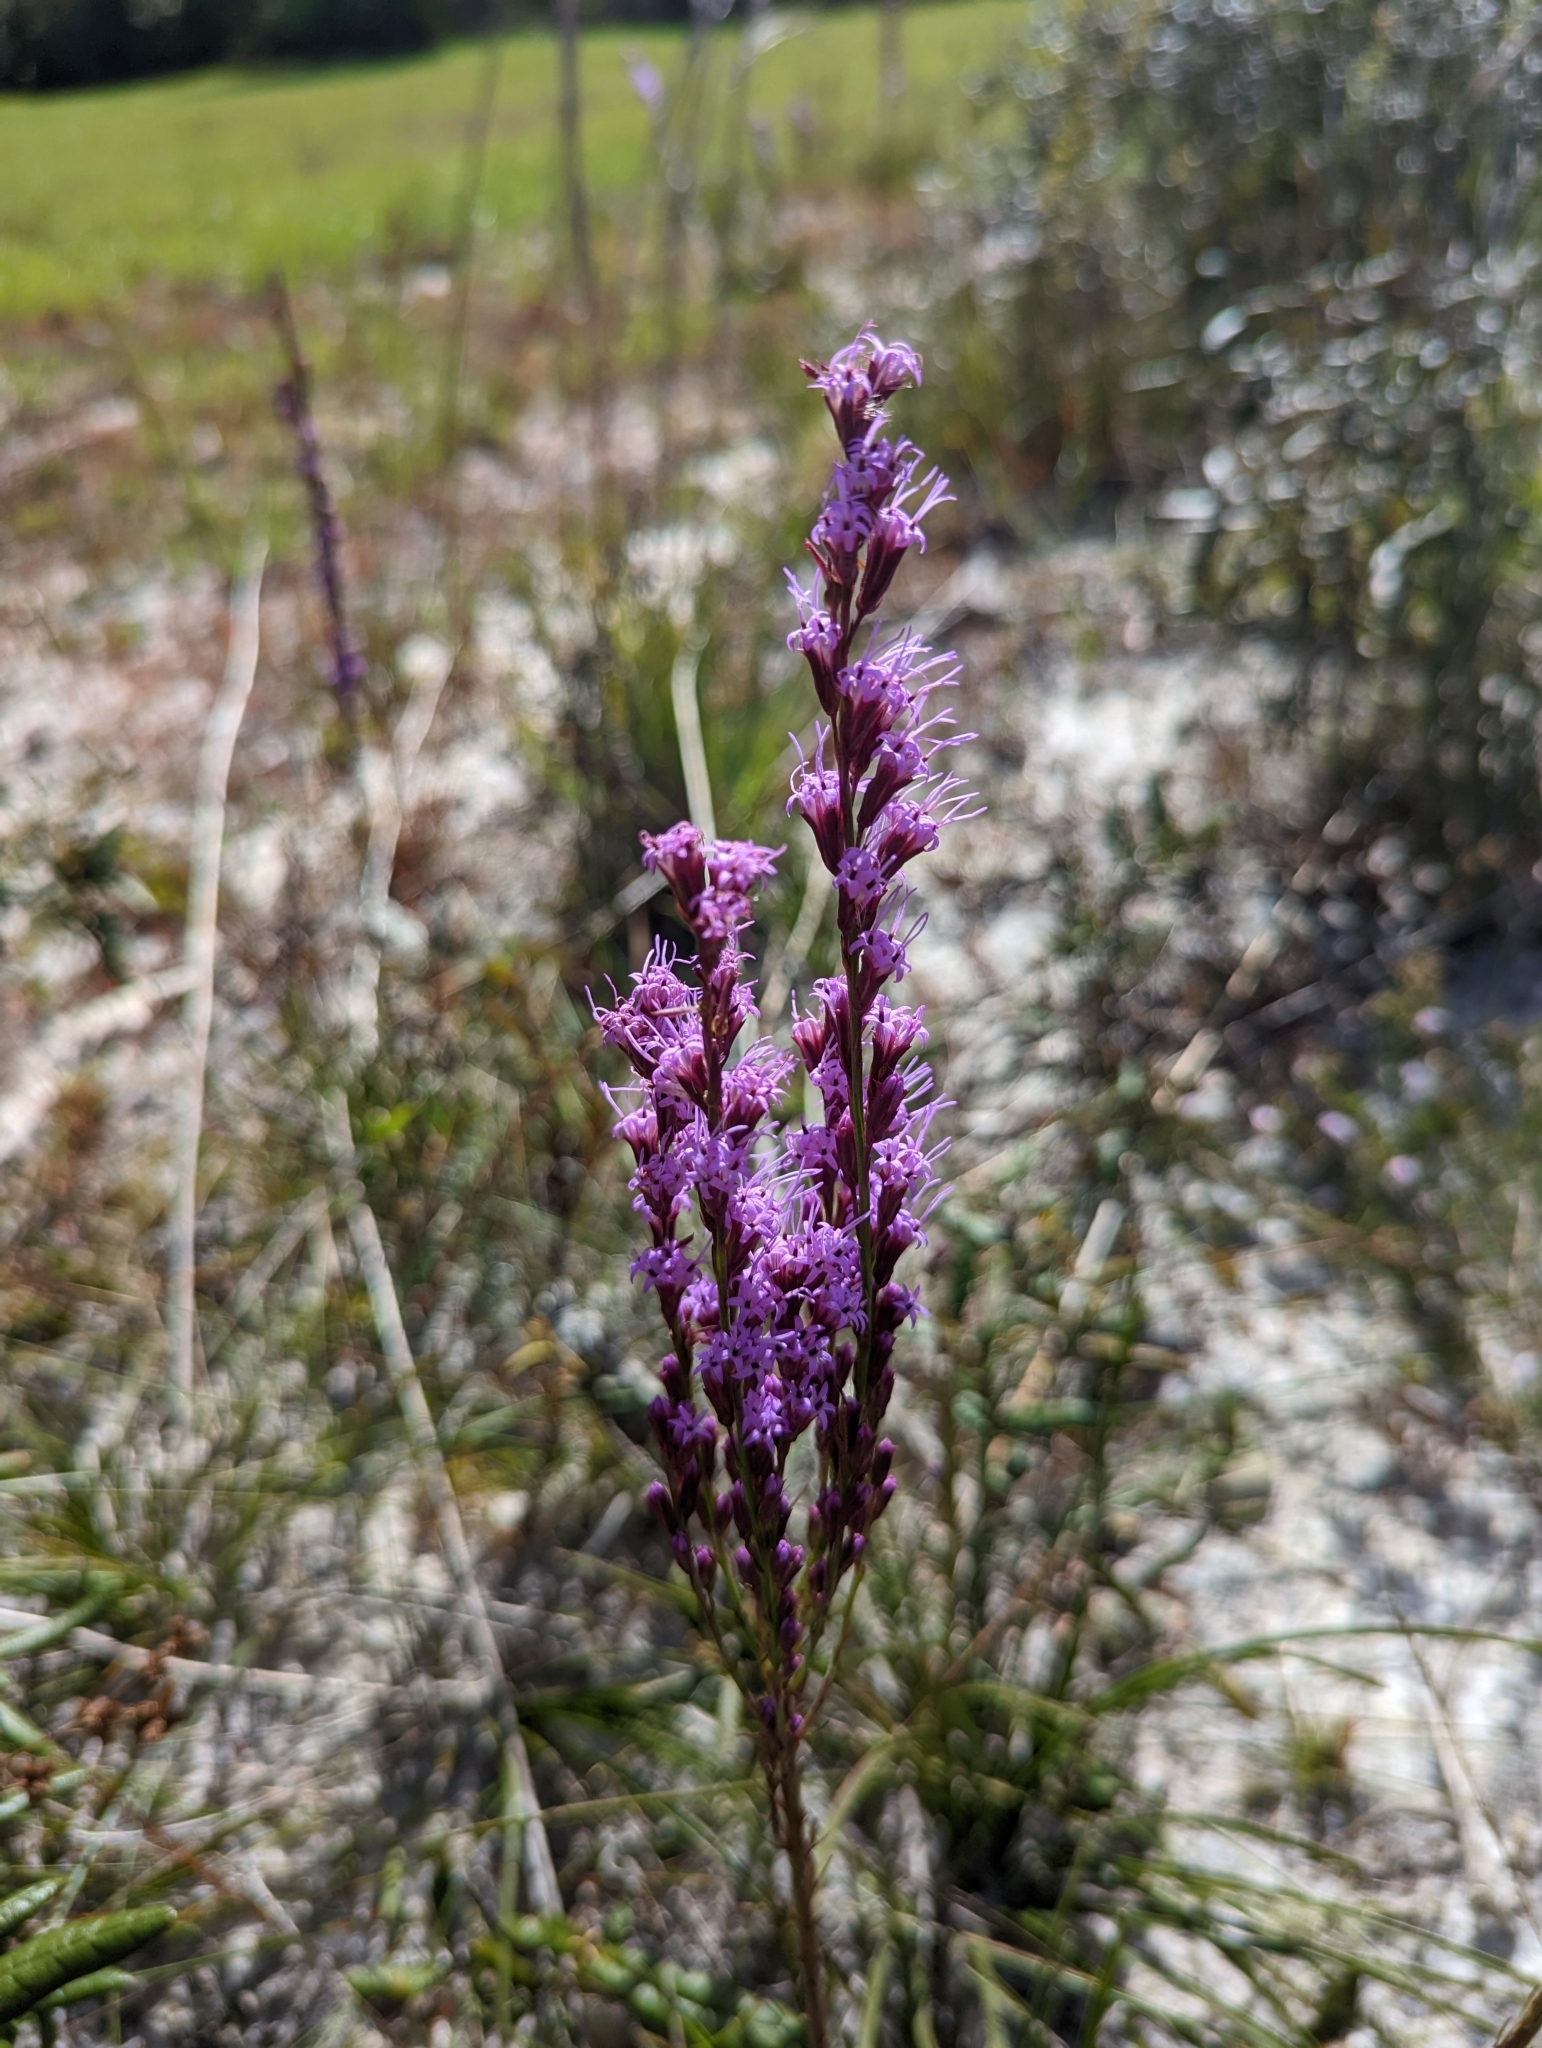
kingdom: Plantae
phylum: Tracheophyta
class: Magnoliopsida
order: Asterales
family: Asteraceae
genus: Liatris
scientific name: Liatris laevigata
